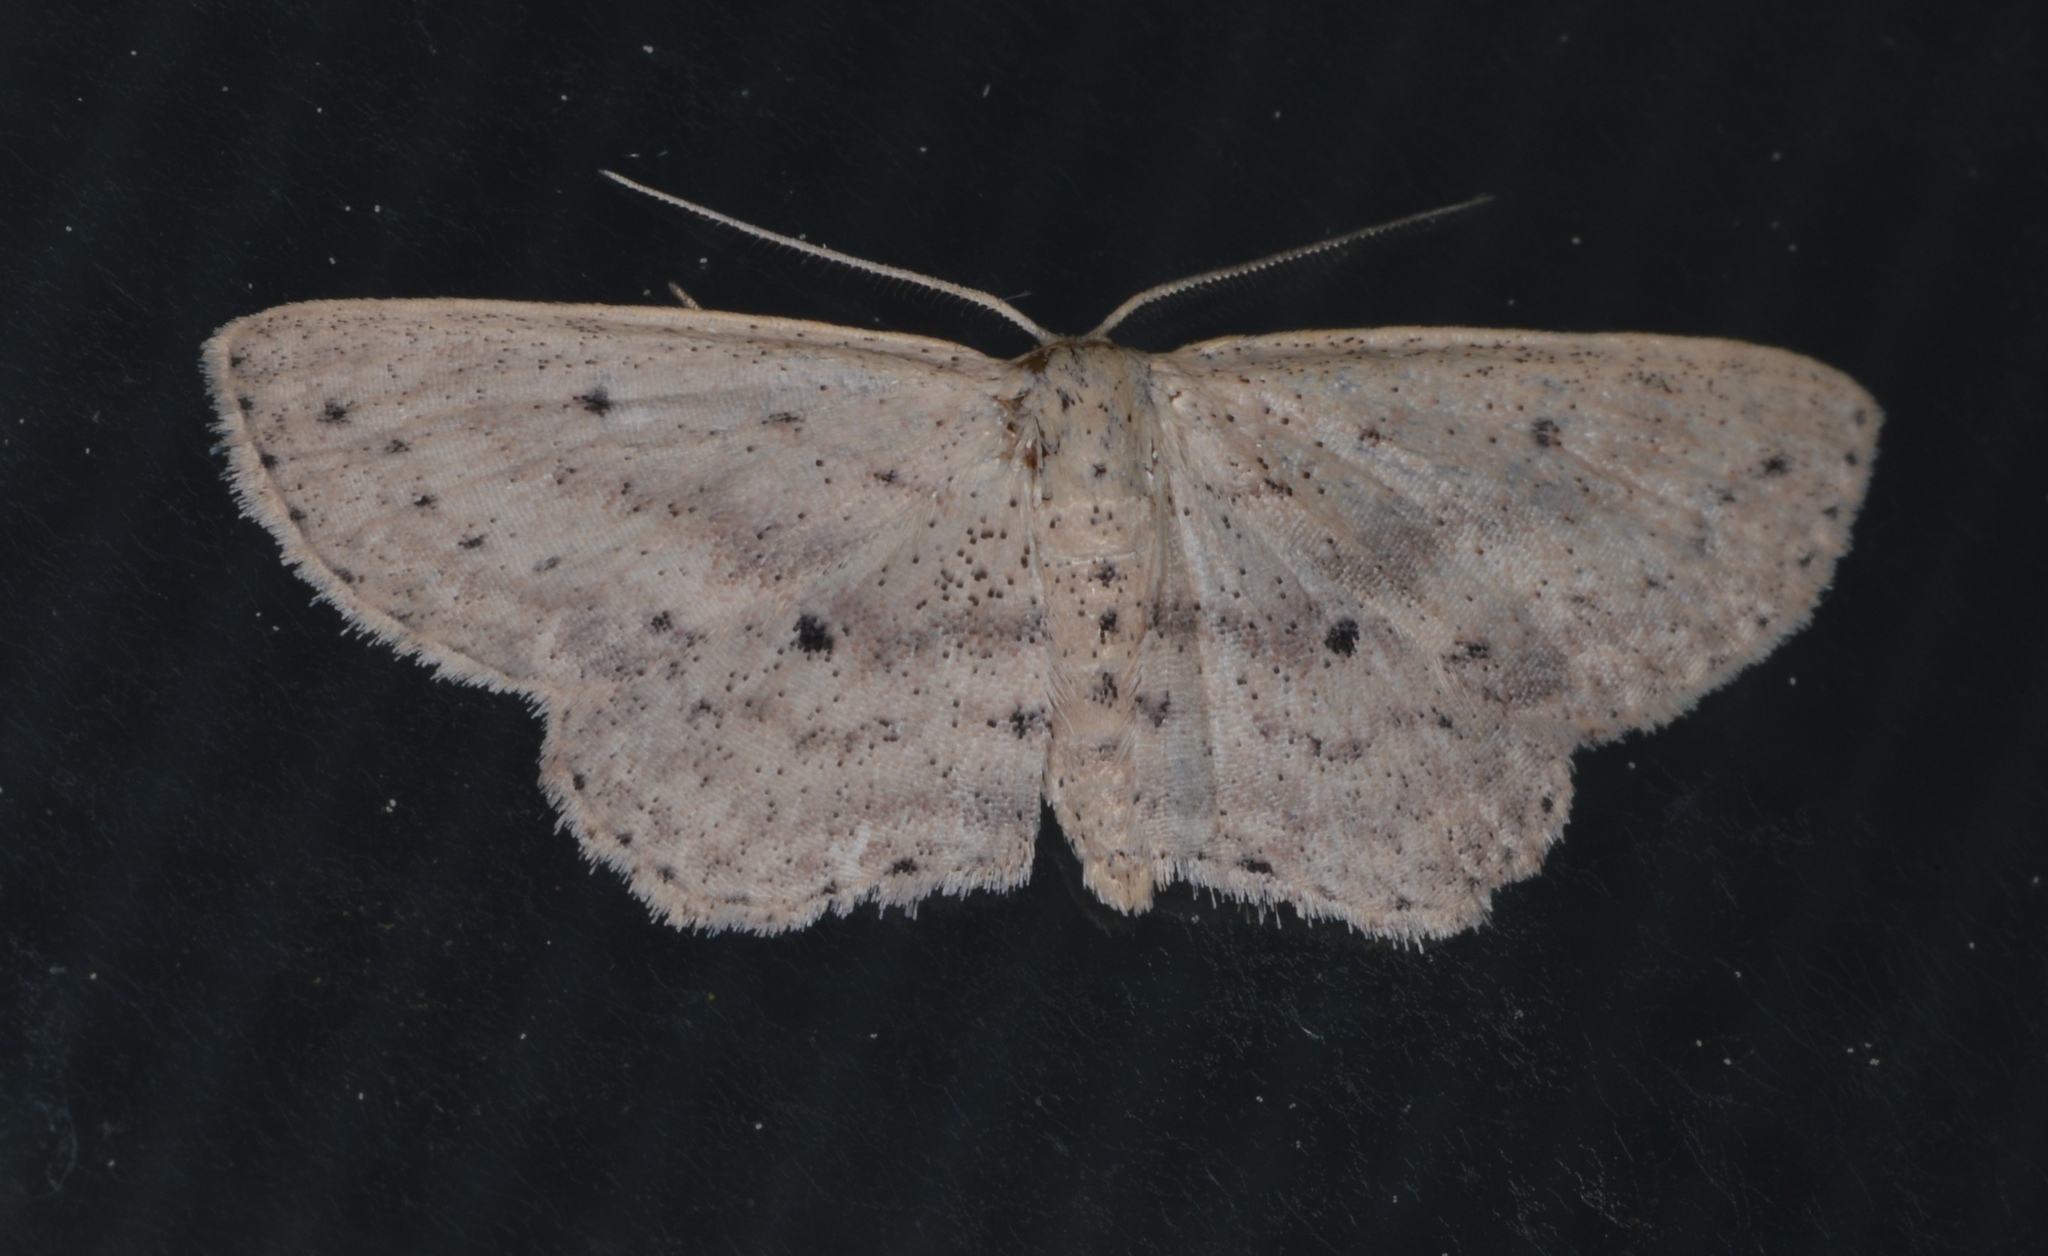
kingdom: Animalia
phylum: Arthropoda
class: Insecta
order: Lepidoptera
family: Geometridae
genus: Scopula
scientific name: Scopula aemulata
